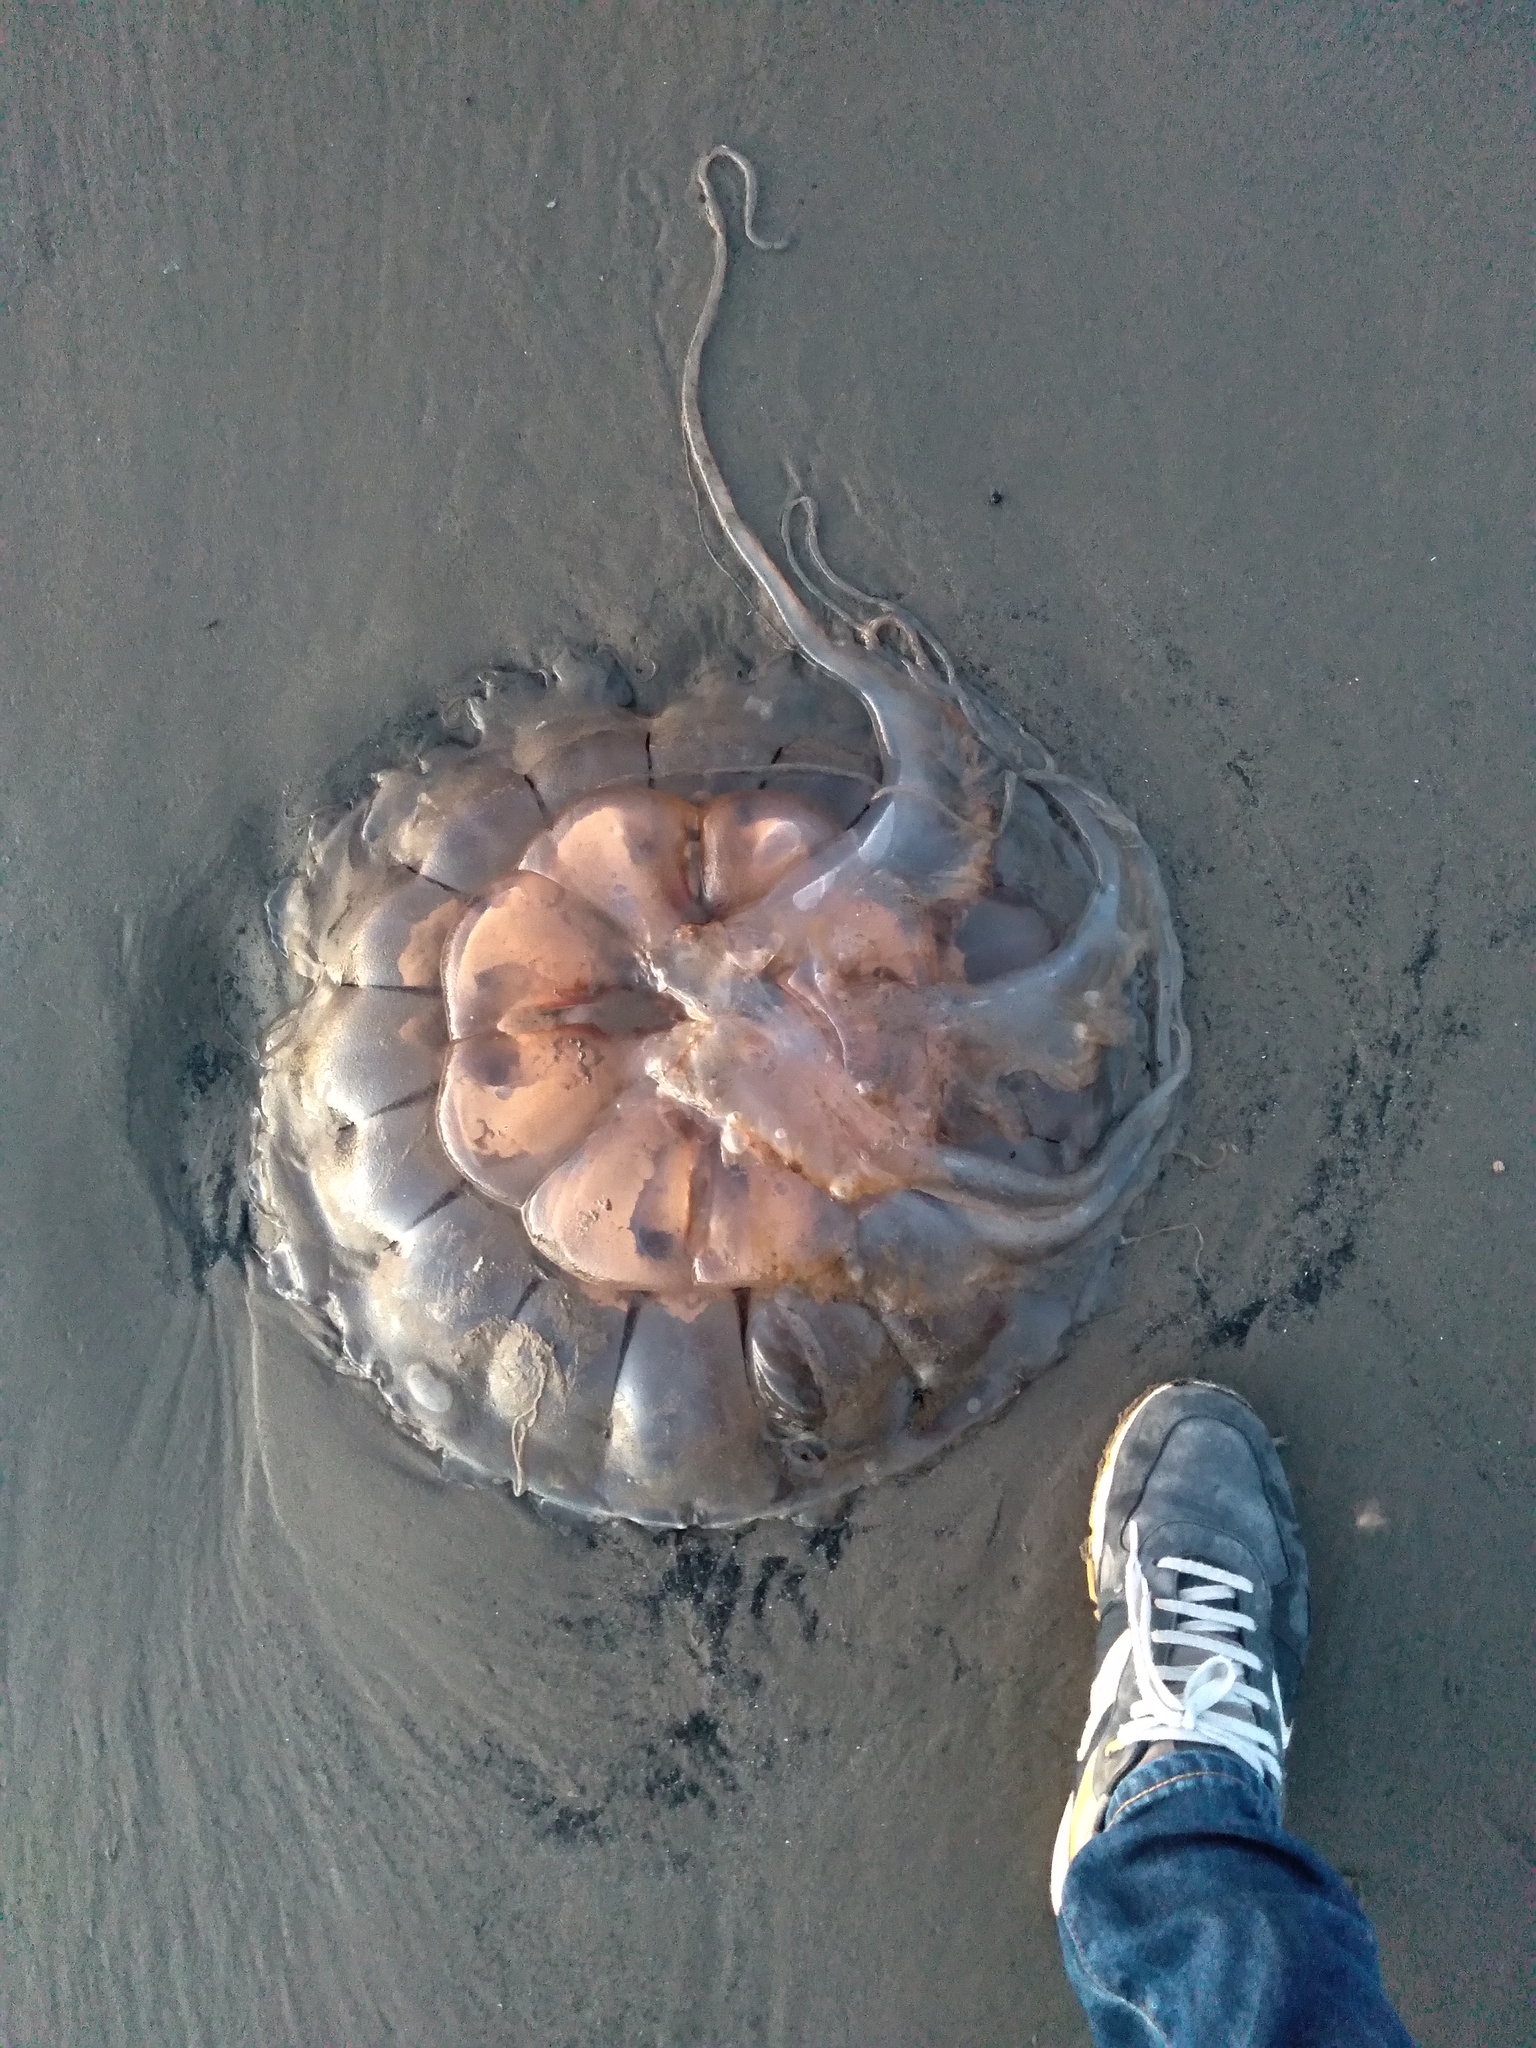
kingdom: Animalia
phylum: Cnidaria
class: Scyphozoa
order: Semaeostomeae
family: Pelagiidae
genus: Chrysaora
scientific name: Chrysaora melanaster
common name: Northern sea nettle
